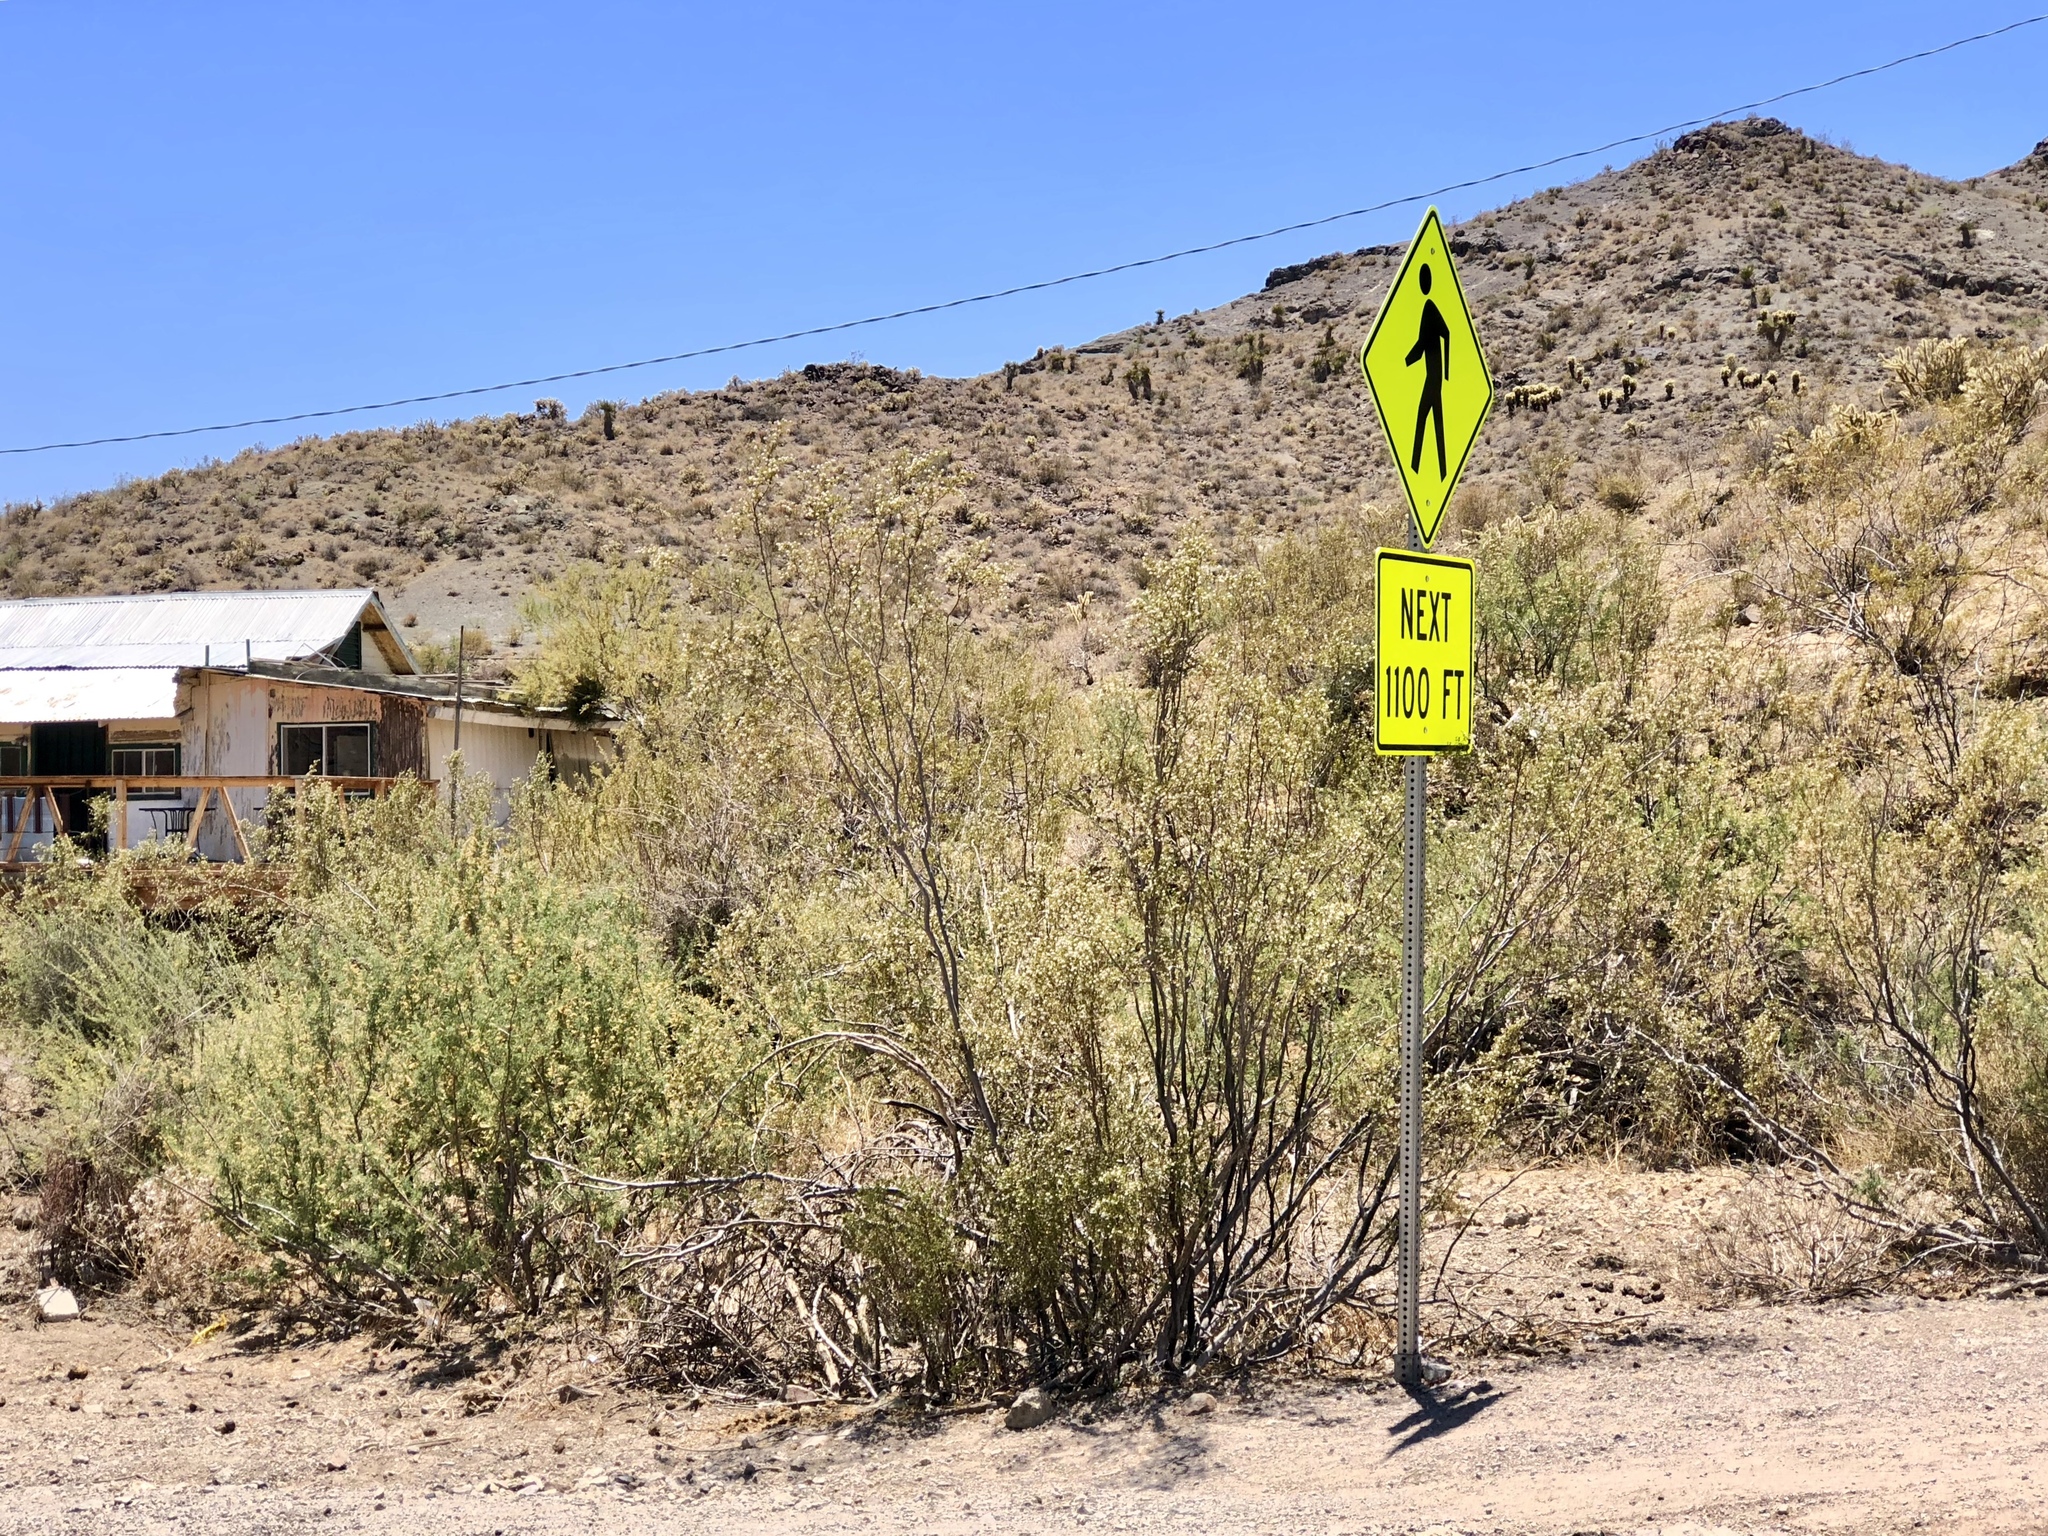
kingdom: Plantae
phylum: Tracheophyta
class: Magnoliopsida
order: Zygophyllales
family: Zygophyllaceae
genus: Larrea
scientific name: Larrea tridentata
